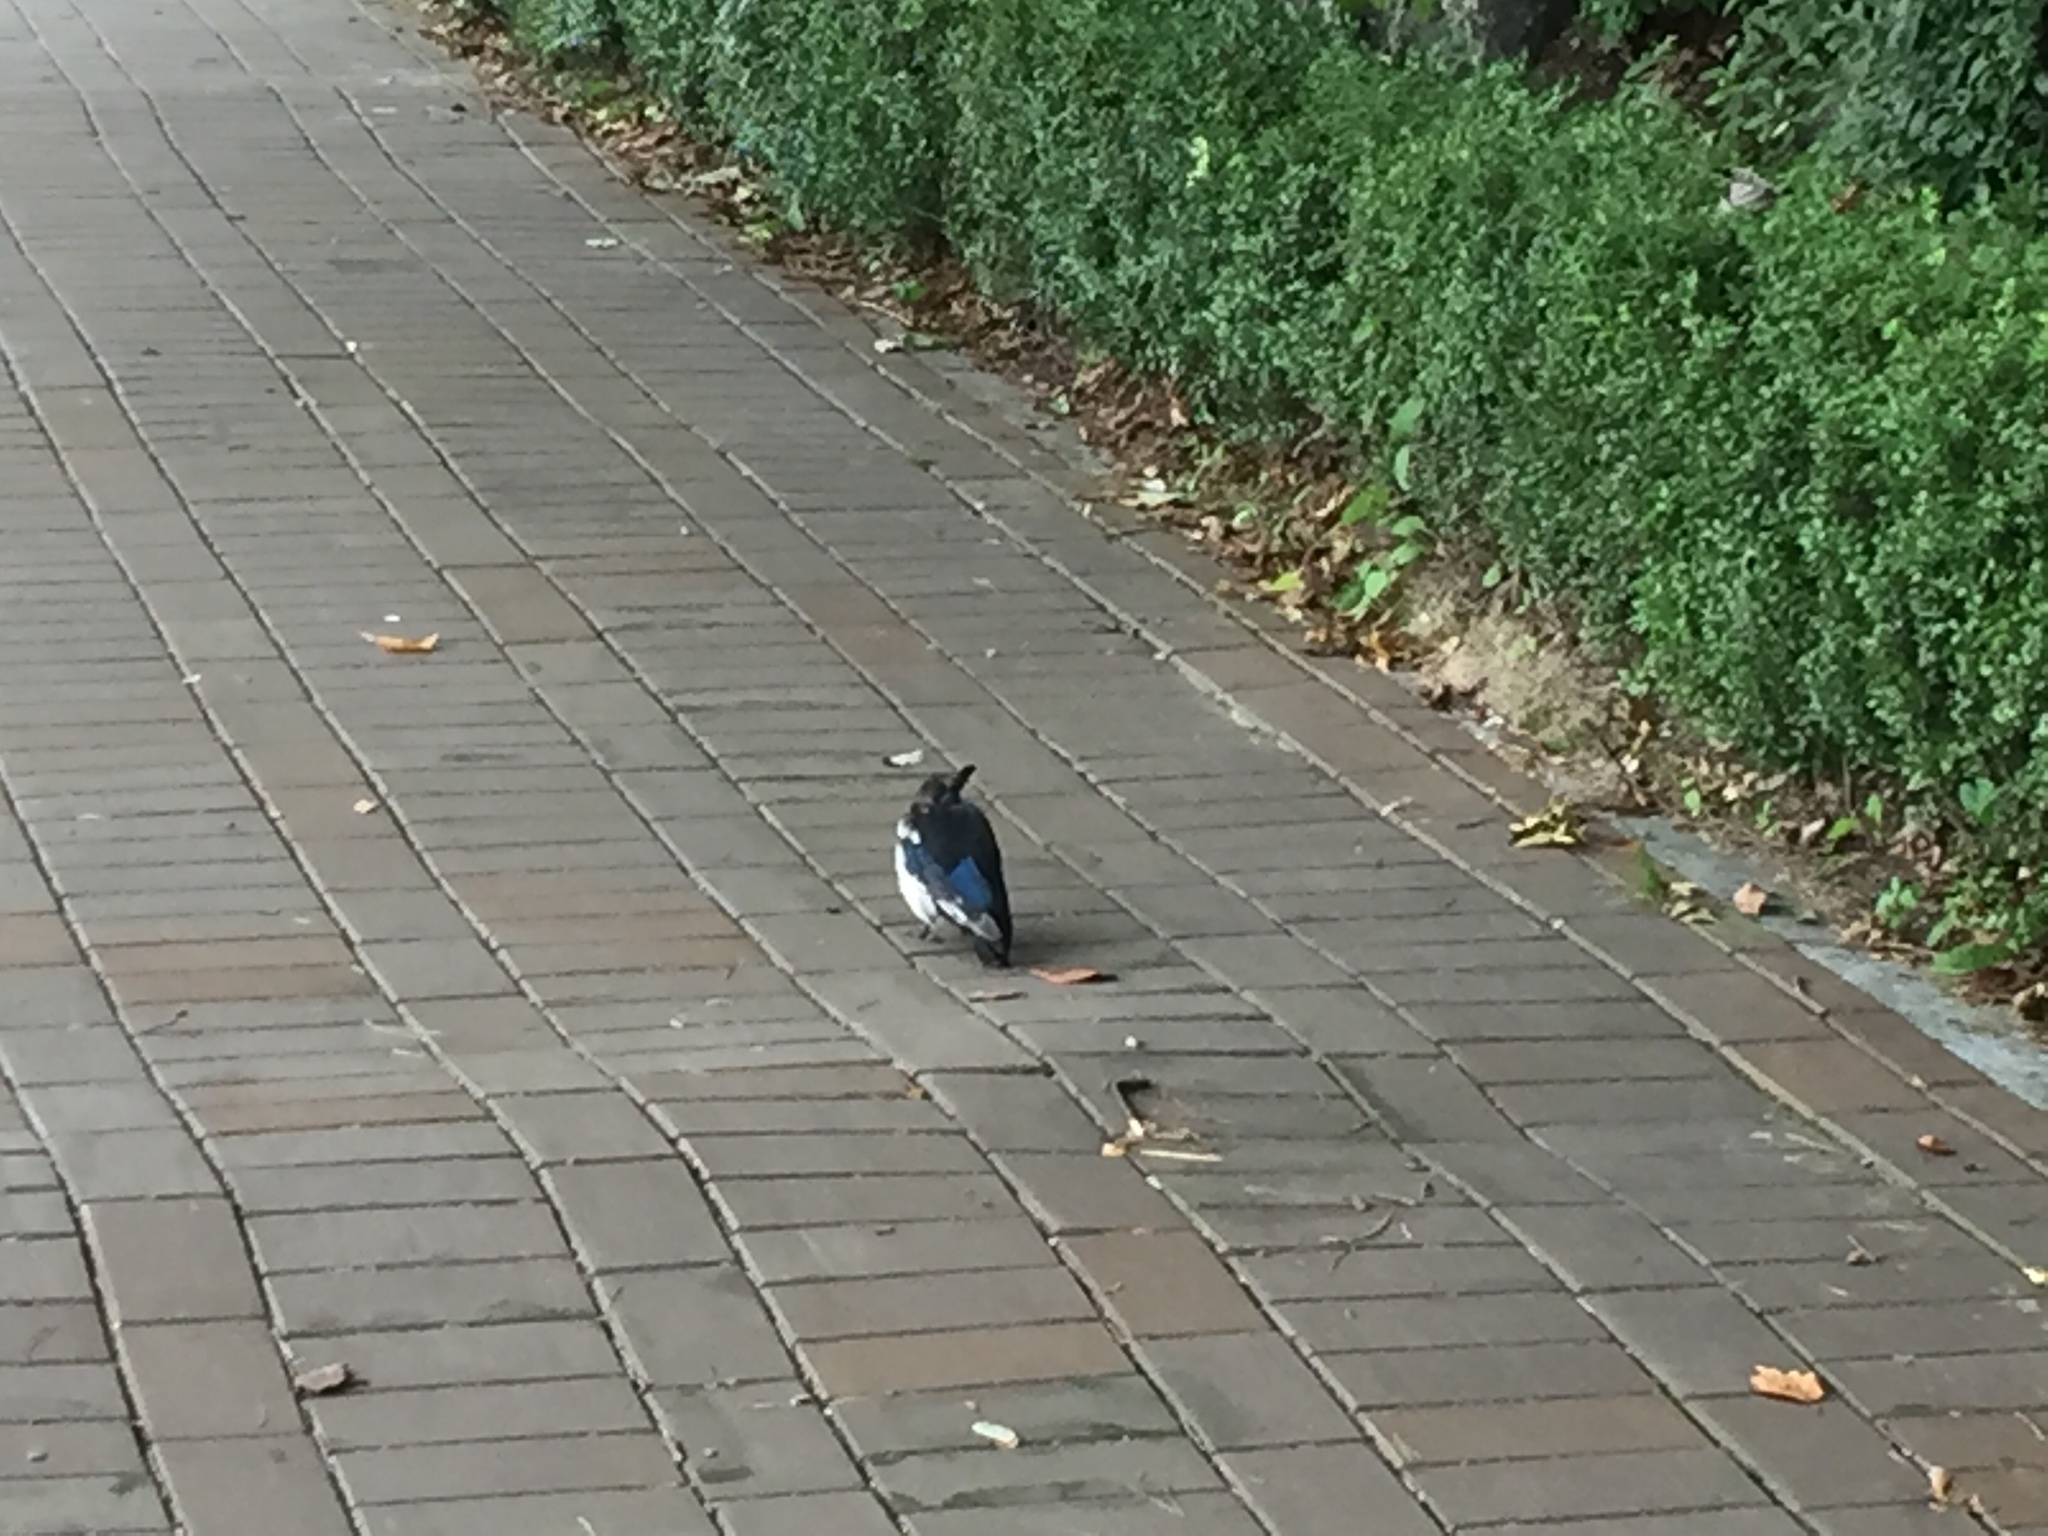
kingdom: Animalia
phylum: Chordata
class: Aves
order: Passeriformes
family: Corvidae
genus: Pica
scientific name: Pica serica
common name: Oriental magpie
